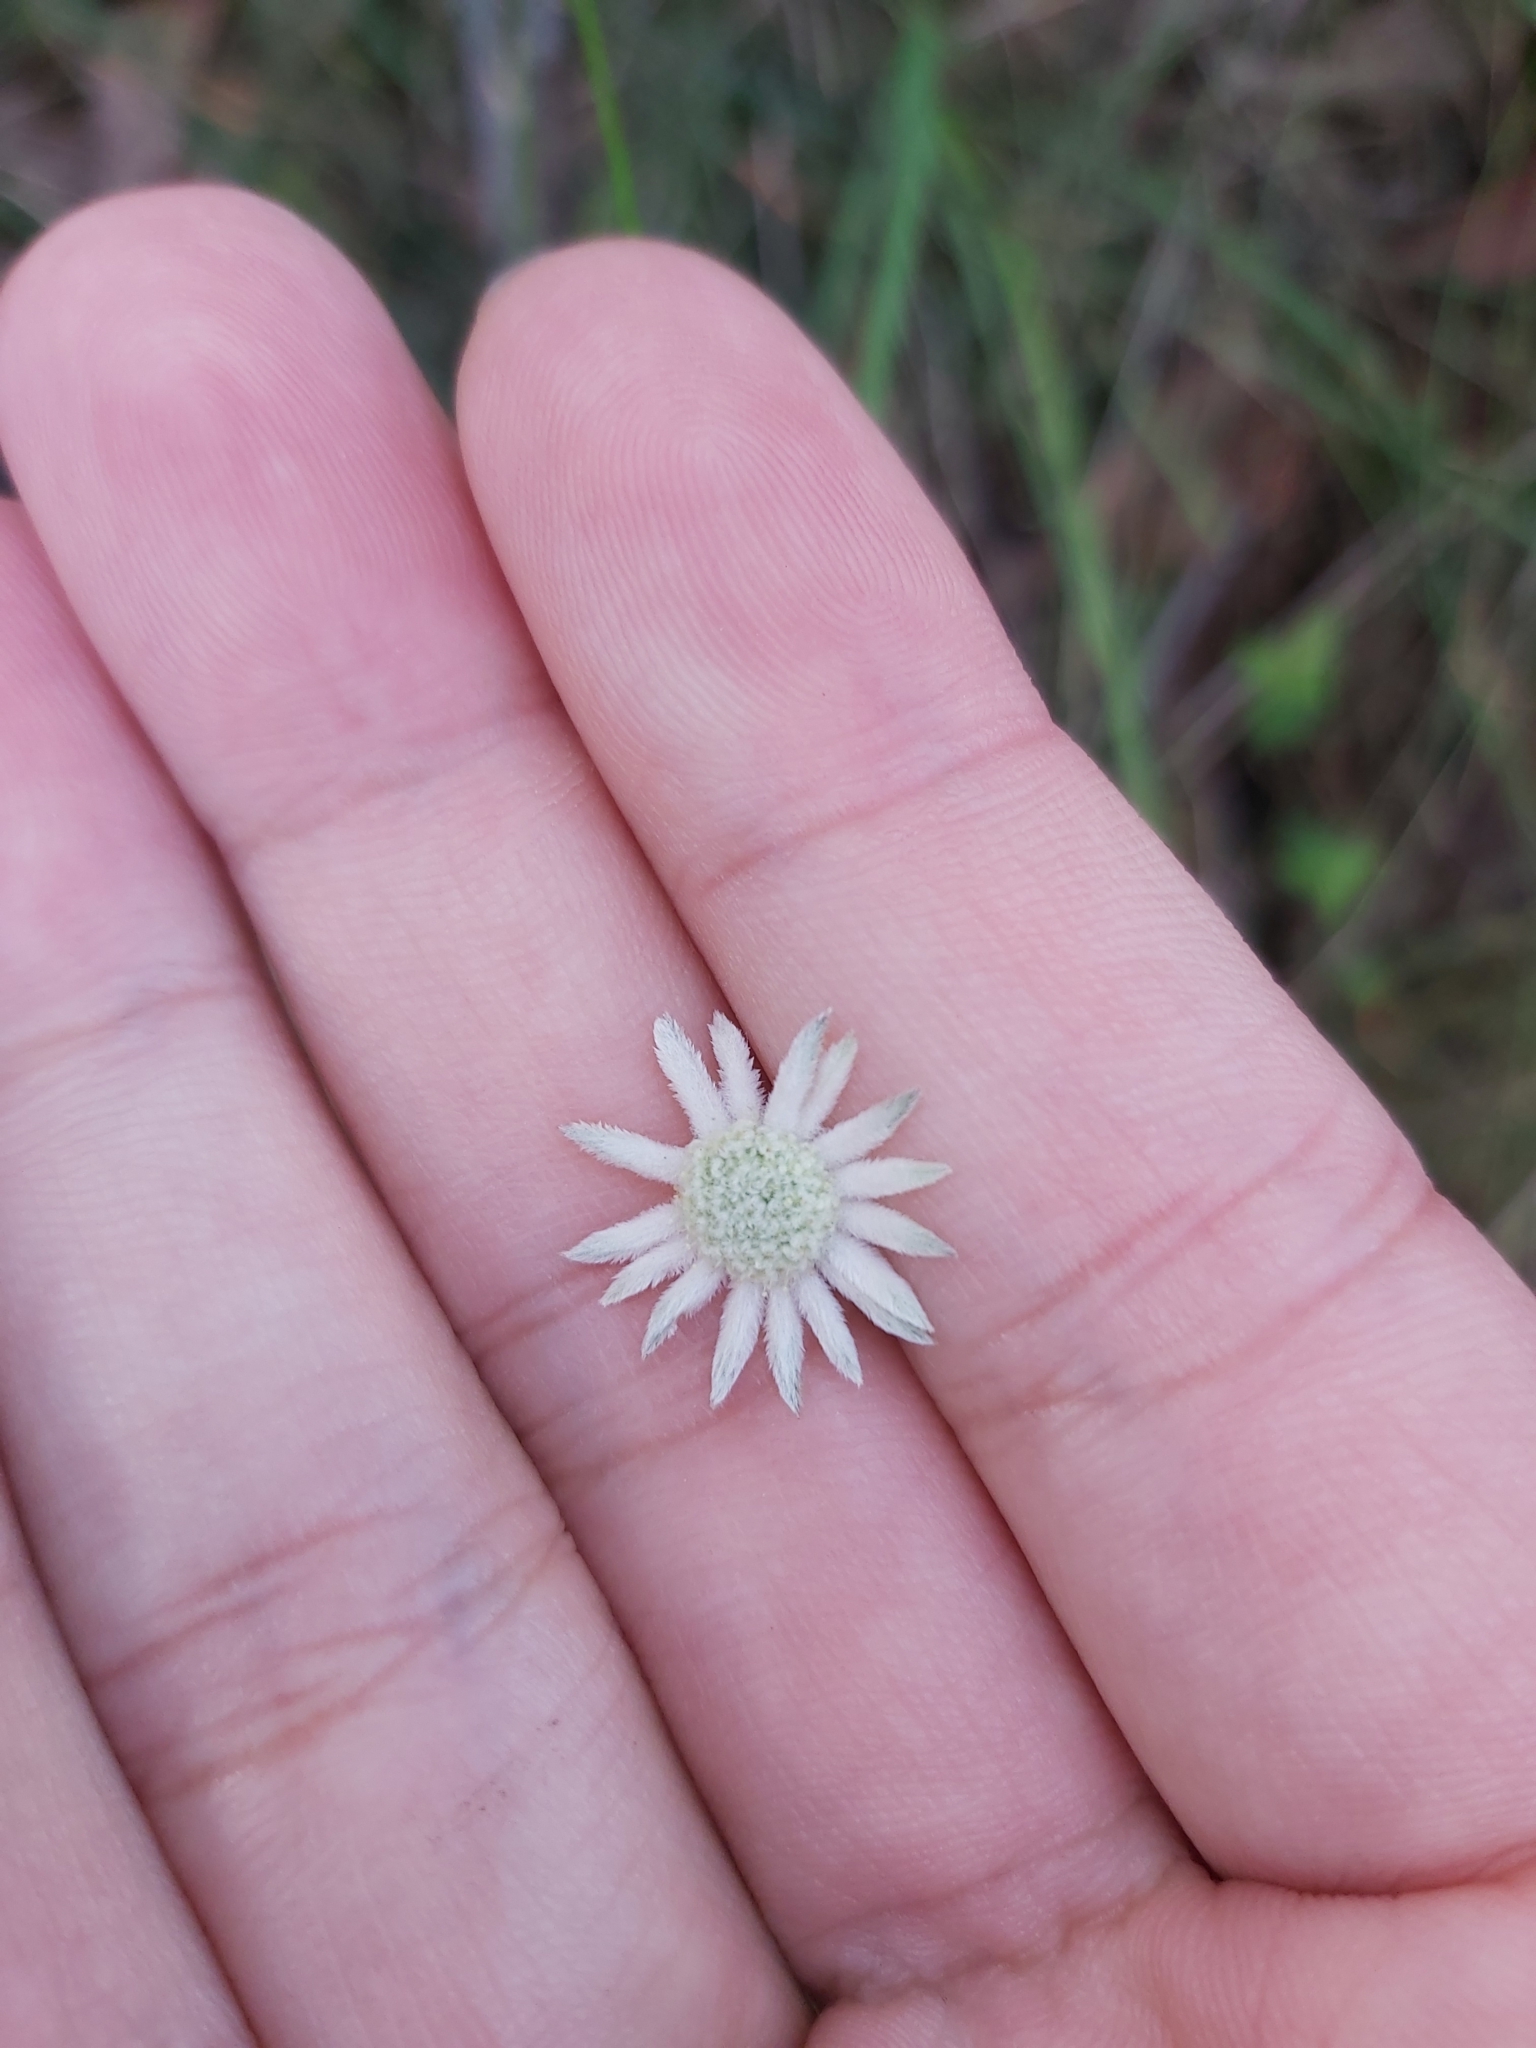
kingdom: Plantae
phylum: Tracheophyta
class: Magnoliopsida
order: Apiales
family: Apiaceae
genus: Actinotus
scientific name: Actinotus minor
